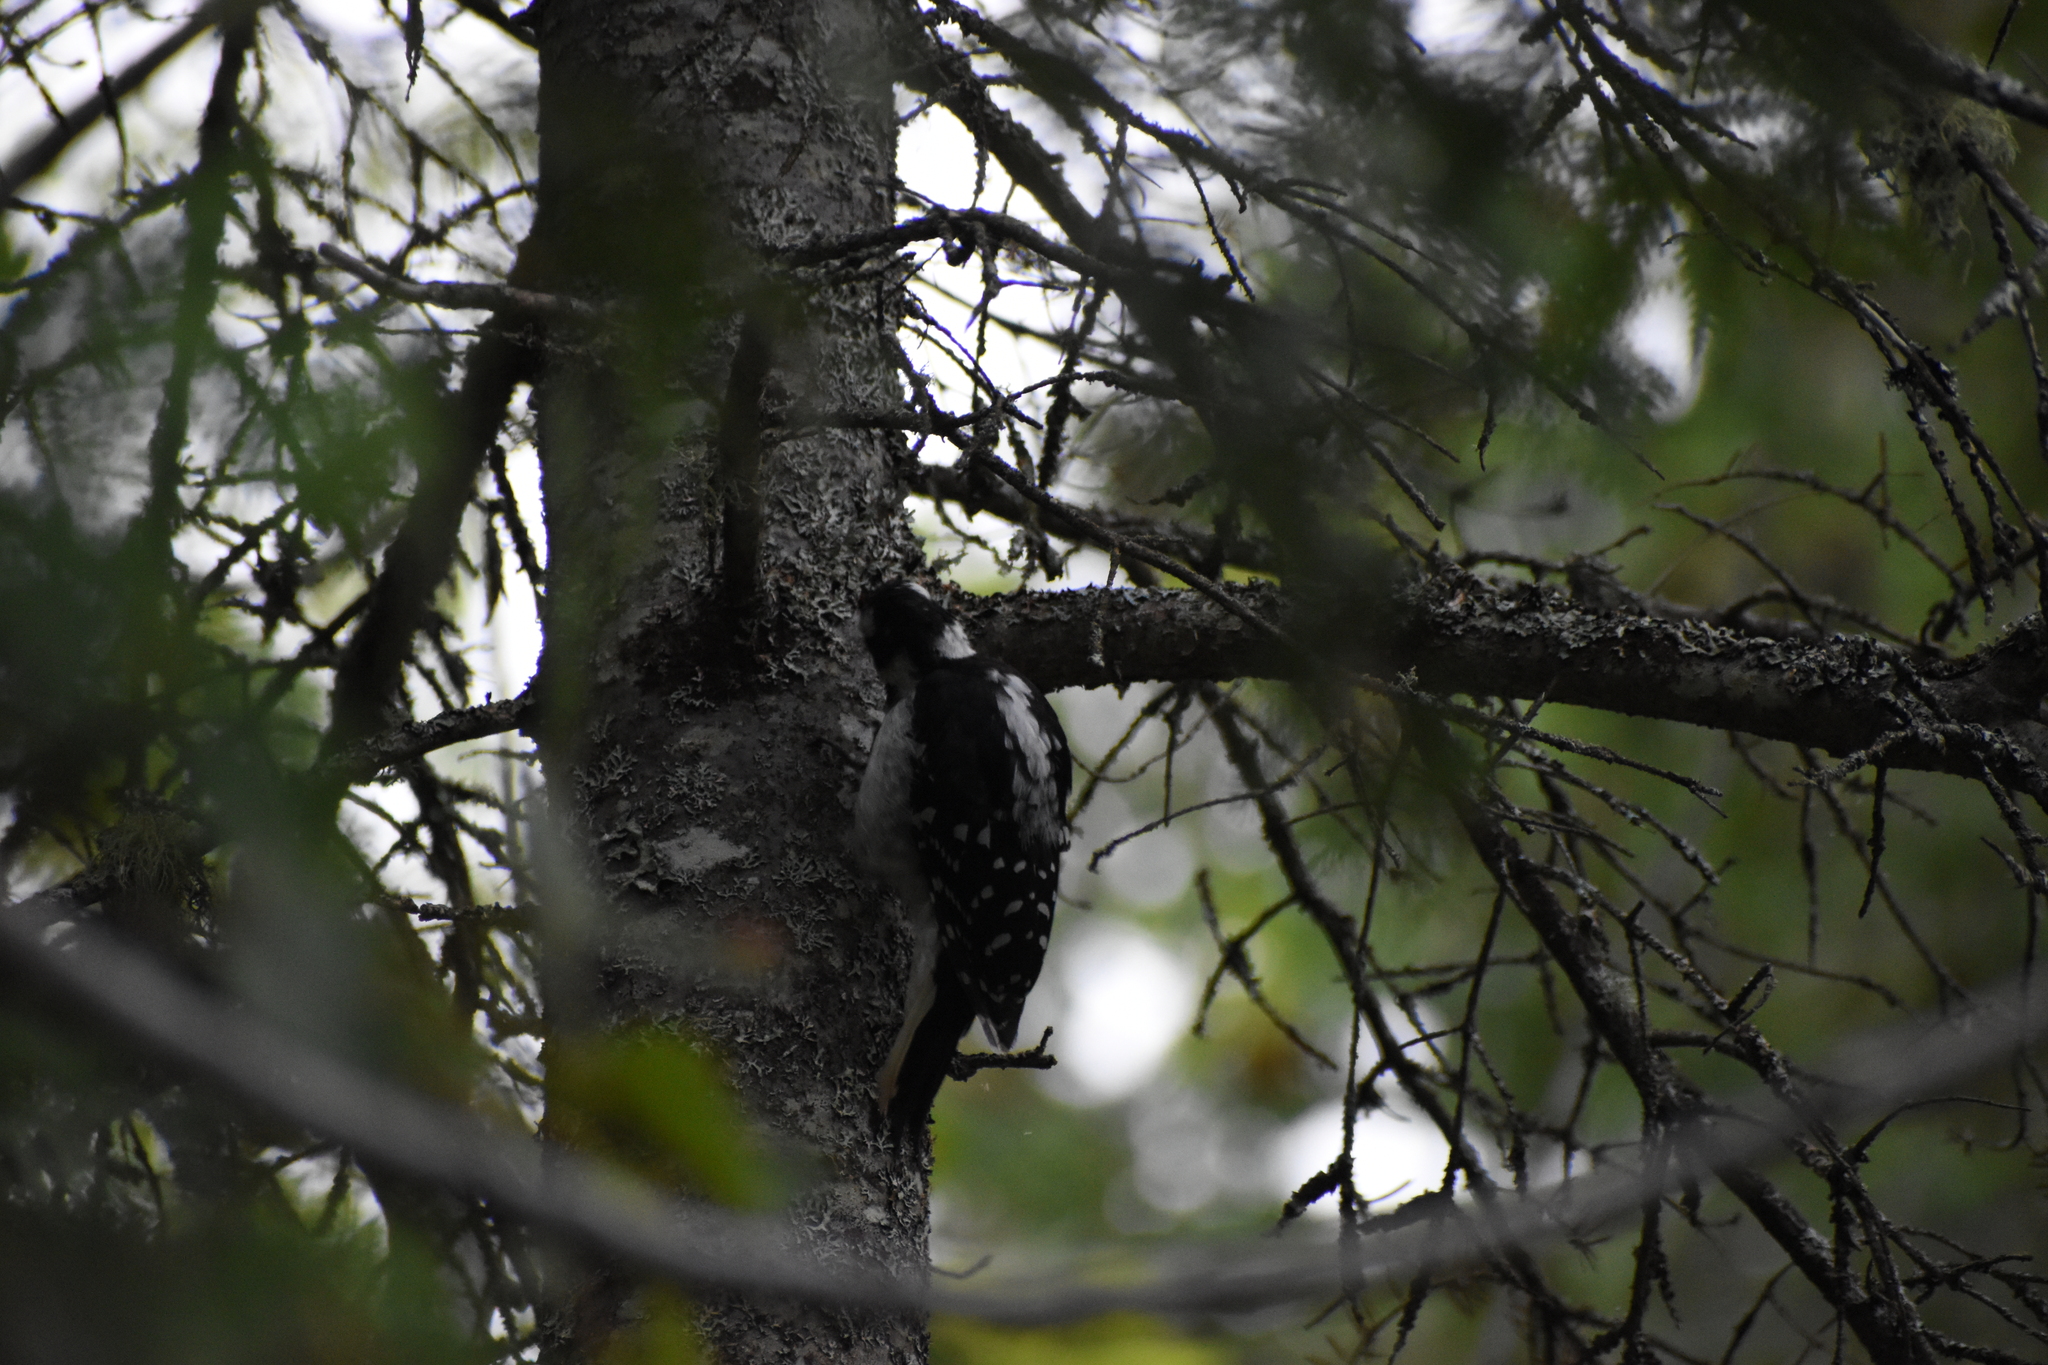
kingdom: Animalia
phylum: Chordata
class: Aves
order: Piciformes
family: Picidae
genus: Leuconotopicus
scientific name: Leuconotopicus villosus
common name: Hairy woodpecker
